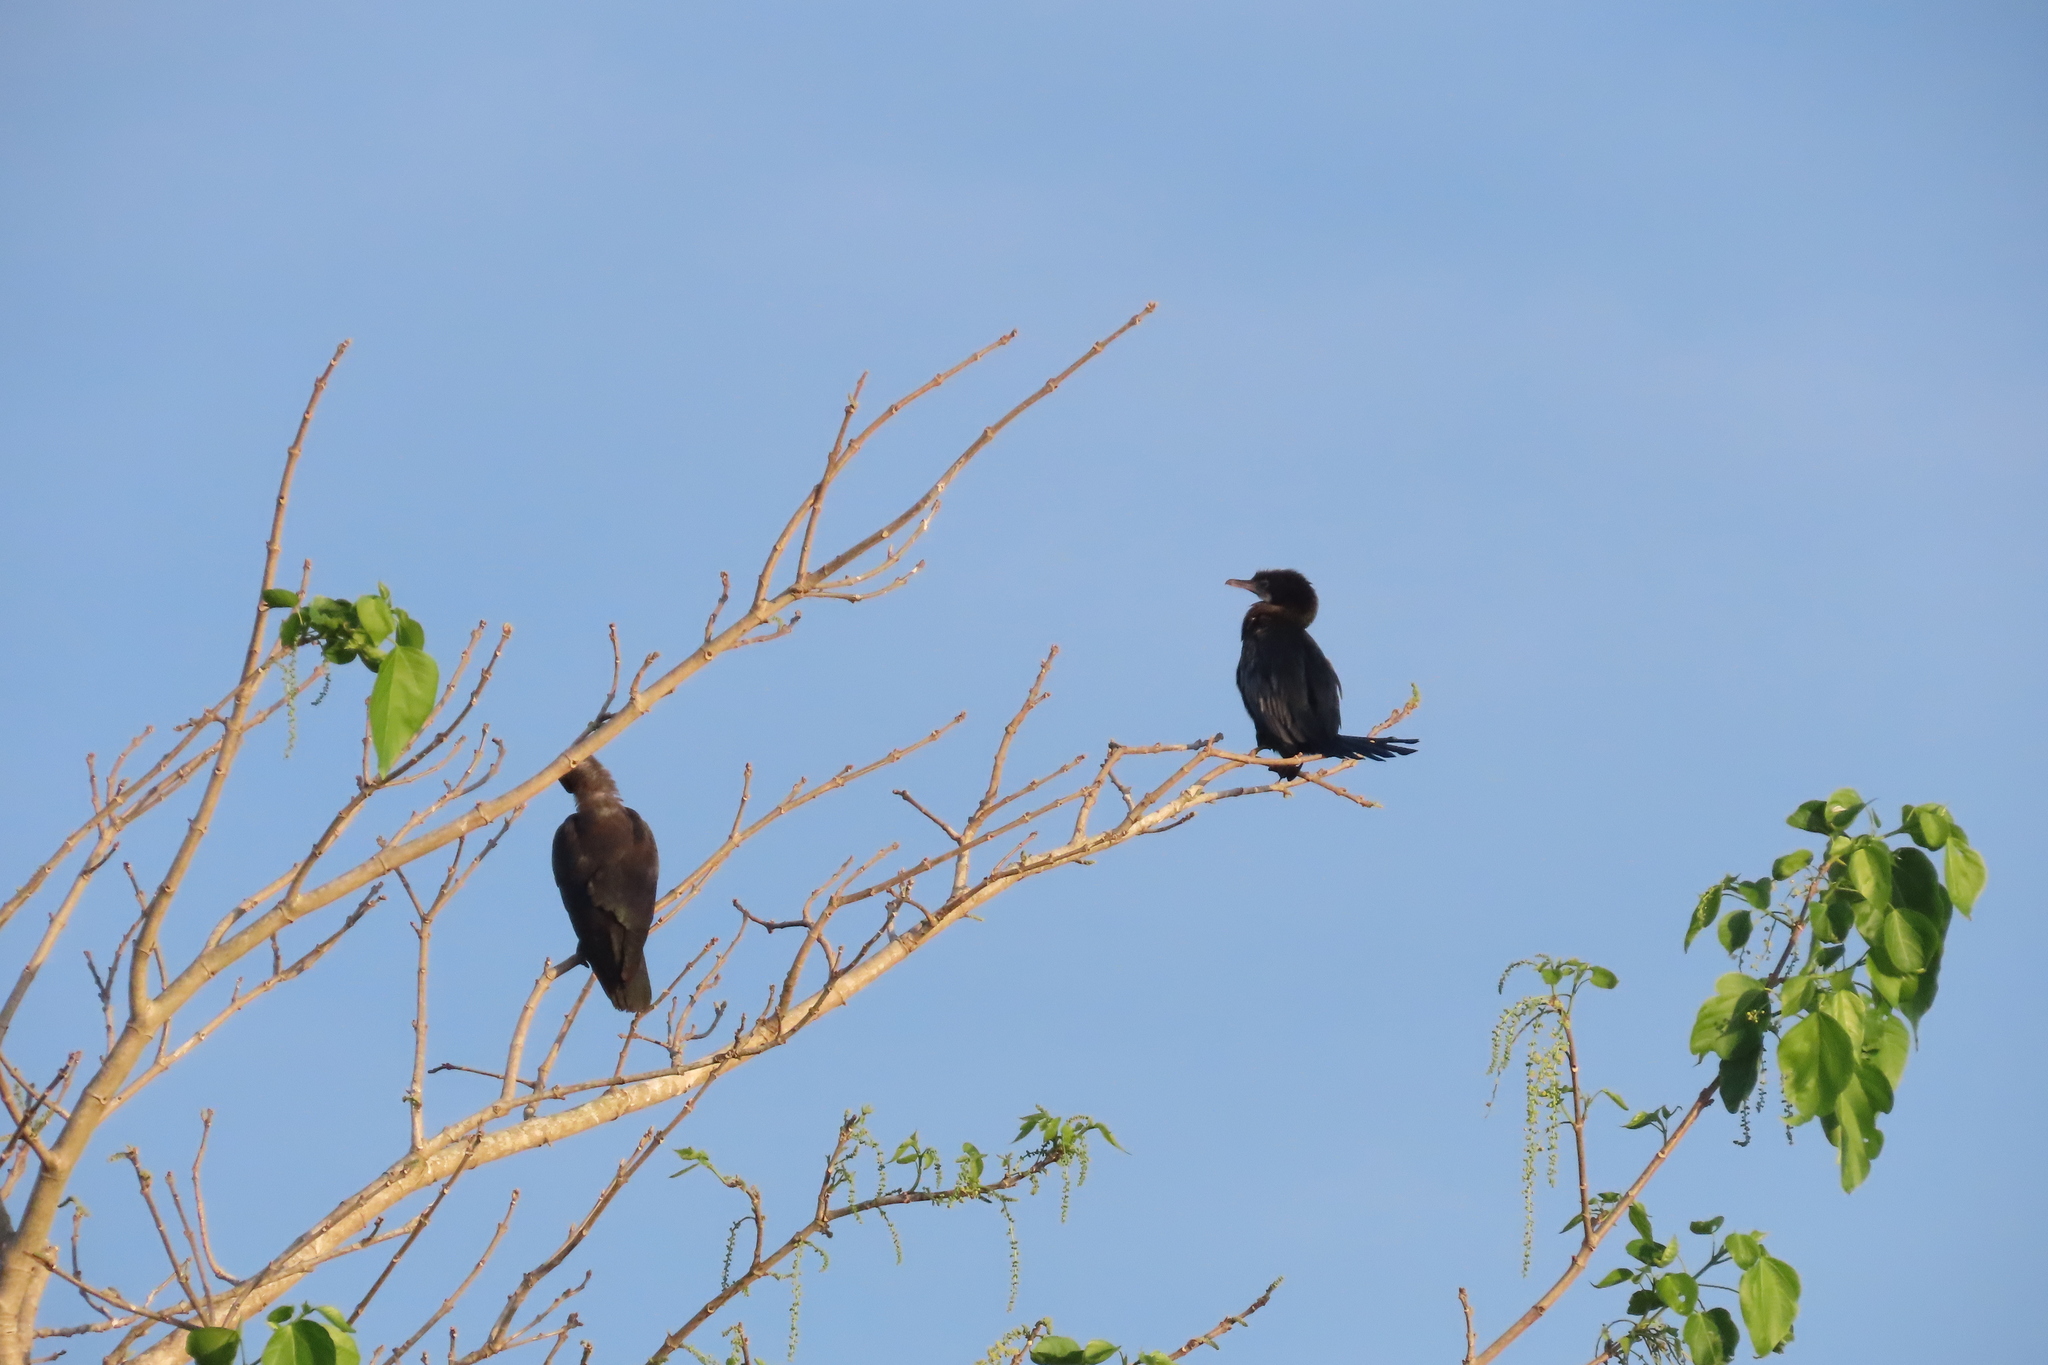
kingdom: Animalia
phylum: Chordata
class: Aves
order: Suliformes
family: Phalacrocoracidae
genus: Microcarbo
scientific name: Microcarbo niger
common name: Little cormorant
